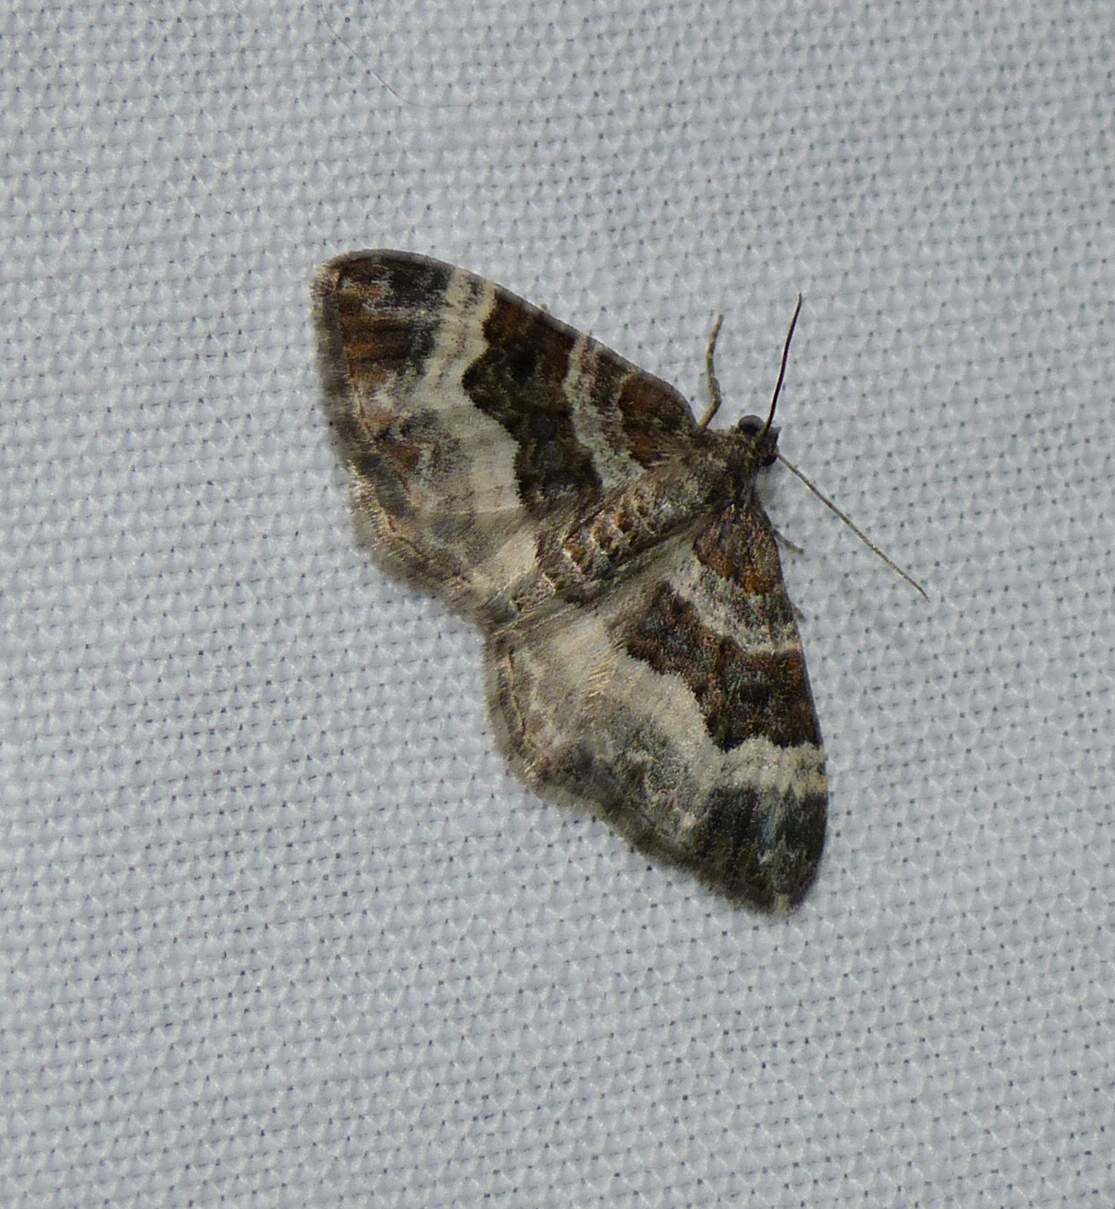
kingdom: Animalia
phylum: Arthropoda
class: Insecta
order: Lepidoptera
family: Geometridae
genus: Epirrhoe
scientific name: Epirrhoe alternata
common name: Common carpet
